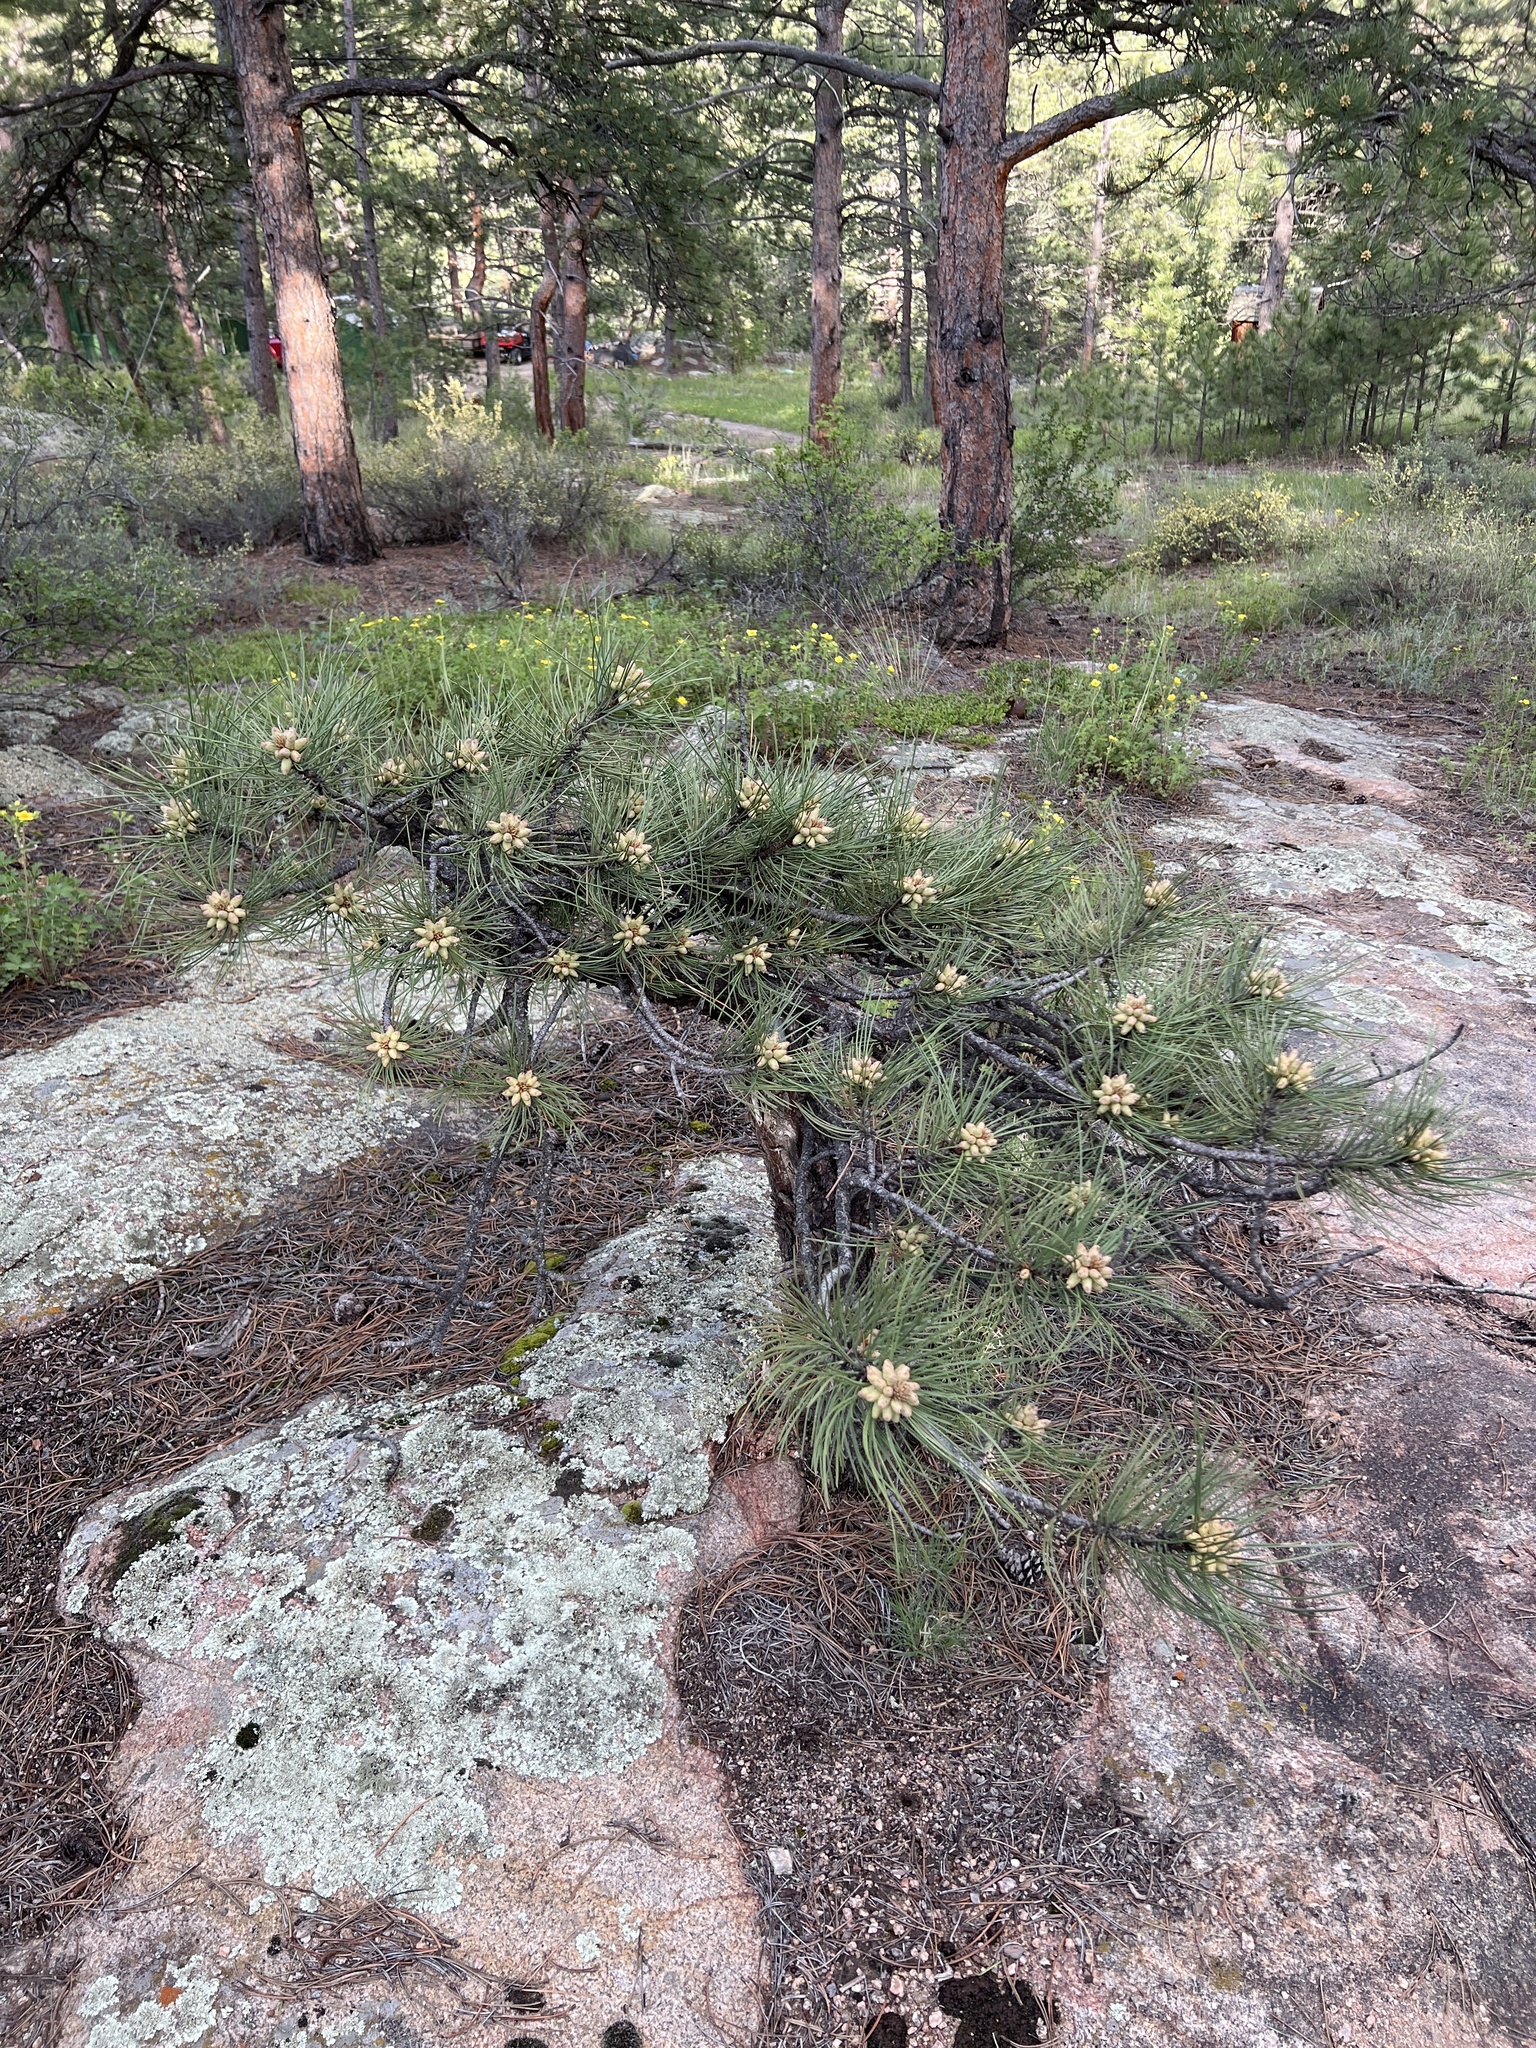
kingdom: Plantae
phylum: Tracheophyta
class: Pinopsida
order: Pinales
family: Pinaceae
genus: Pinus
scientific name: Pinus ponderosa
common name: Western yellow-pine
